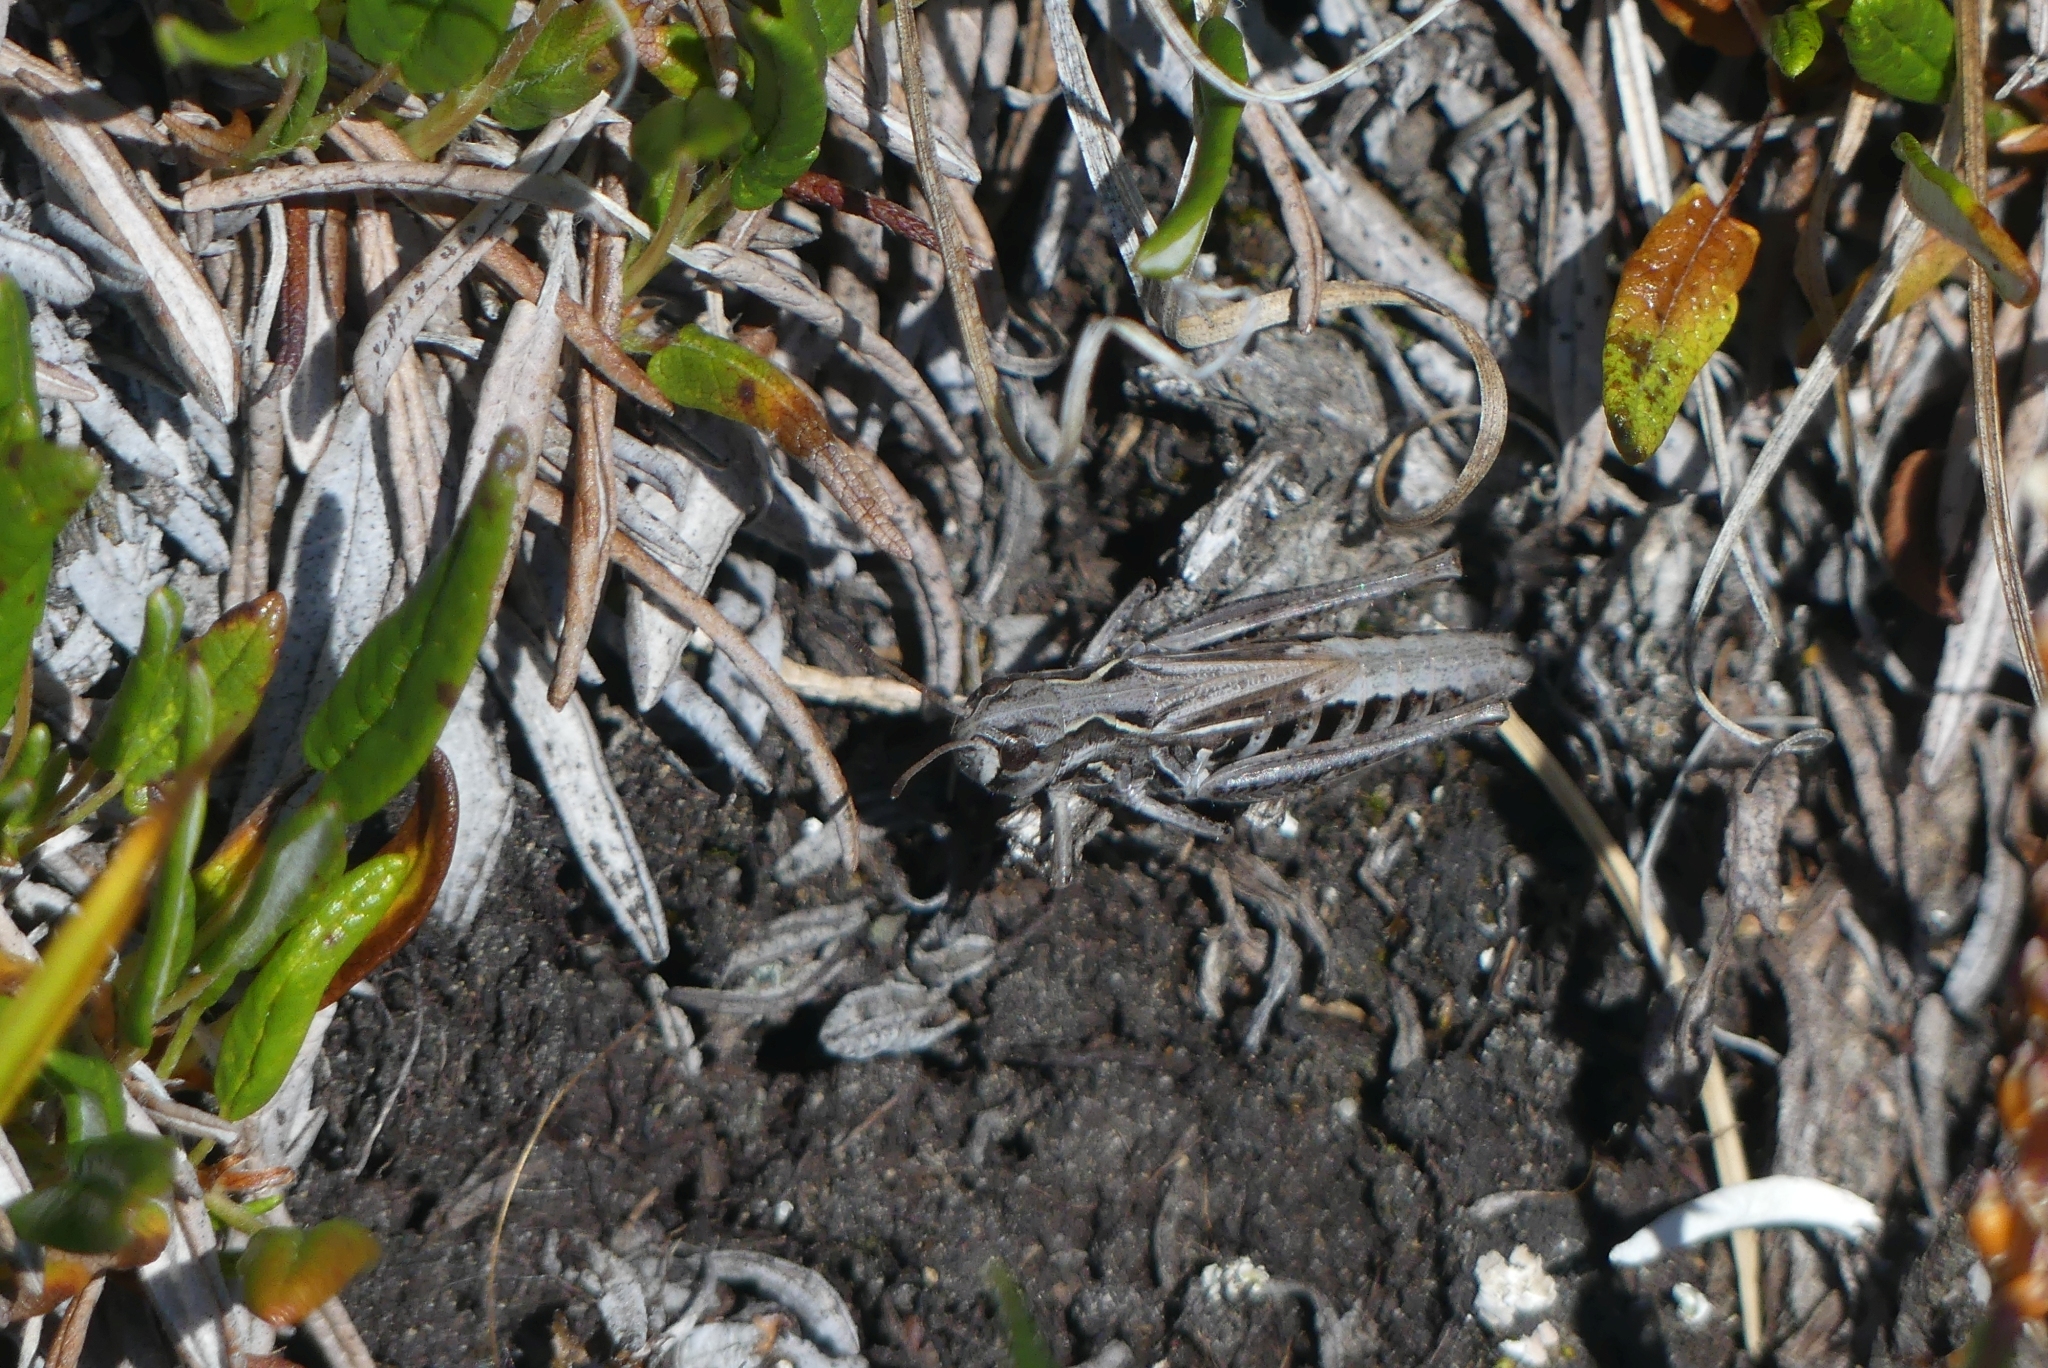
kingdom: Animalia
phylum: Arthropoda
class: Insecta
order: Orthoptera
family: Acrididae
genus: Aeropedellus
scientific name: Aeropedellus clavatus
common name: Clubhorned grasshopper
